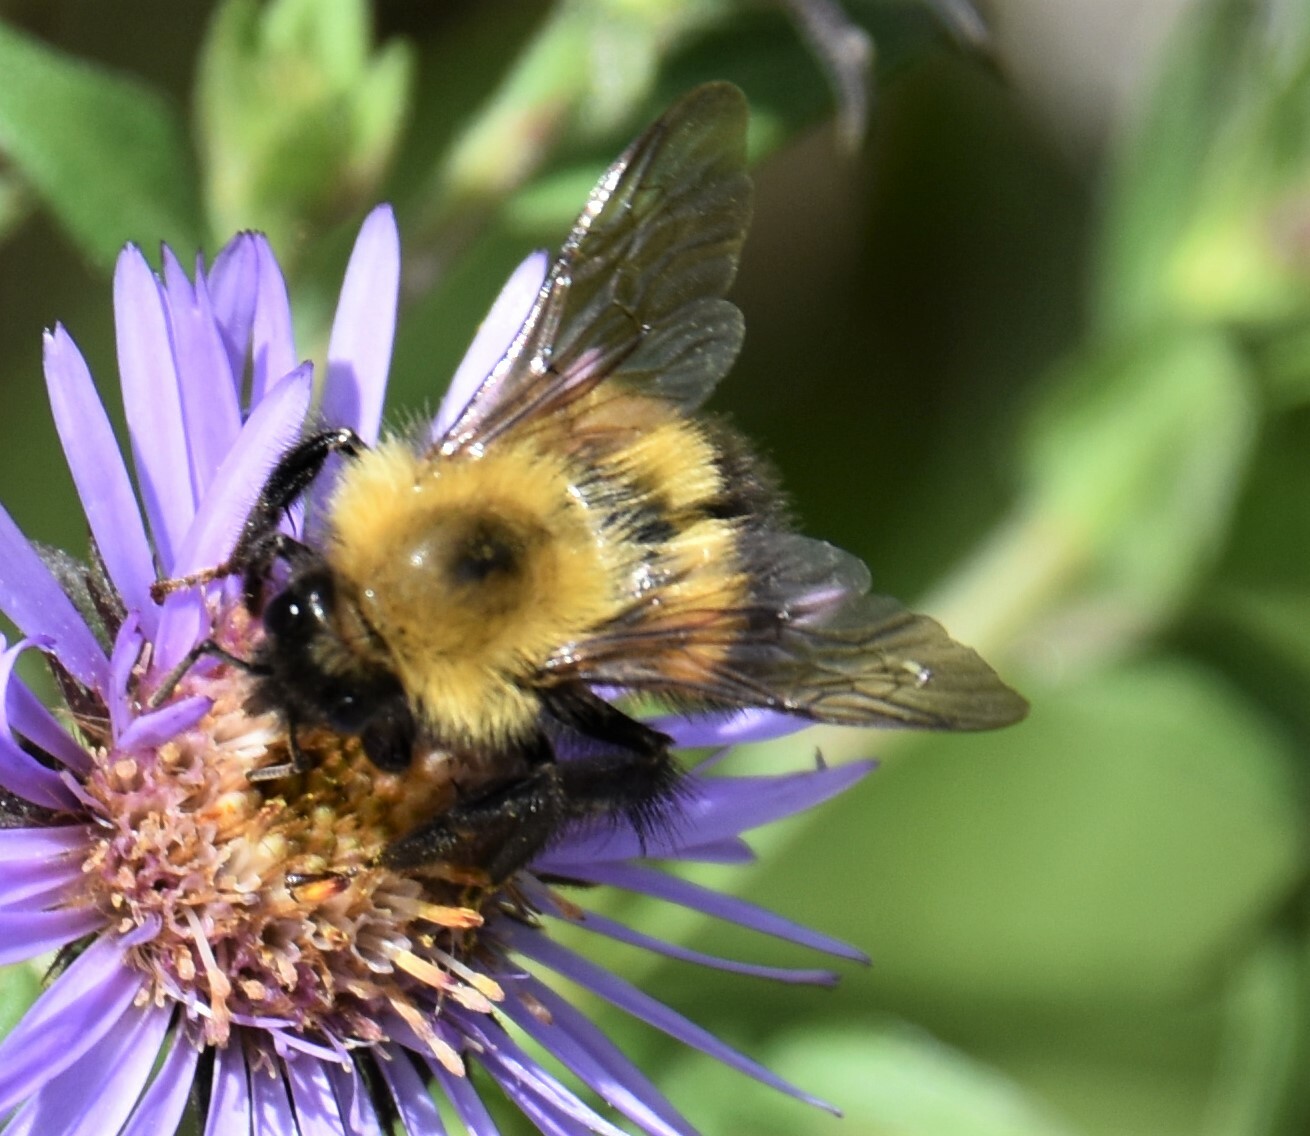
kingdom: Animalia
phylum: Arthropoda
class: Insecta
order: Hymenoptera
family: Apidae
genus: Bombus
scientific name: Bombus perplexus
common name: Confusing bumble bee
